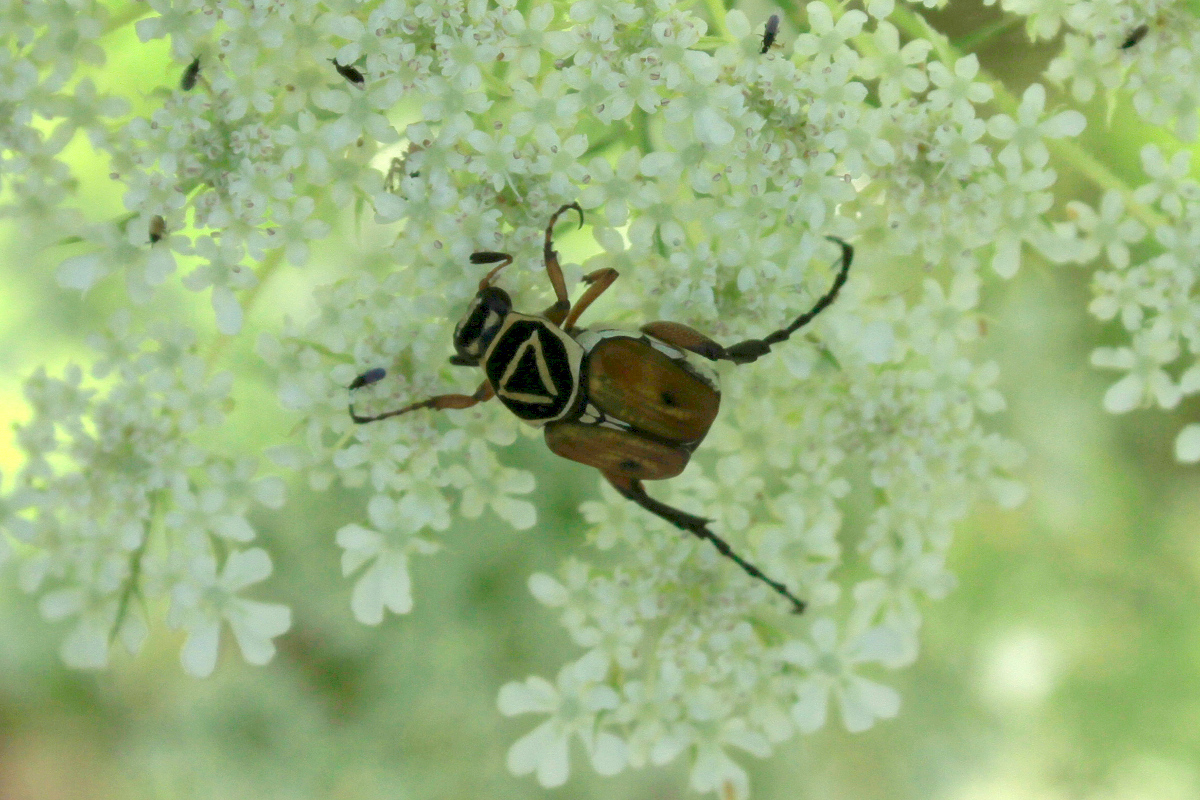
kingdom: Animalia
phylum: Arthropoda
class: Insecta
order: Coleoptera
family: Scarabaeidae
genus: Trigonopeltastes
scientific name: Trigonopeltastes delta
